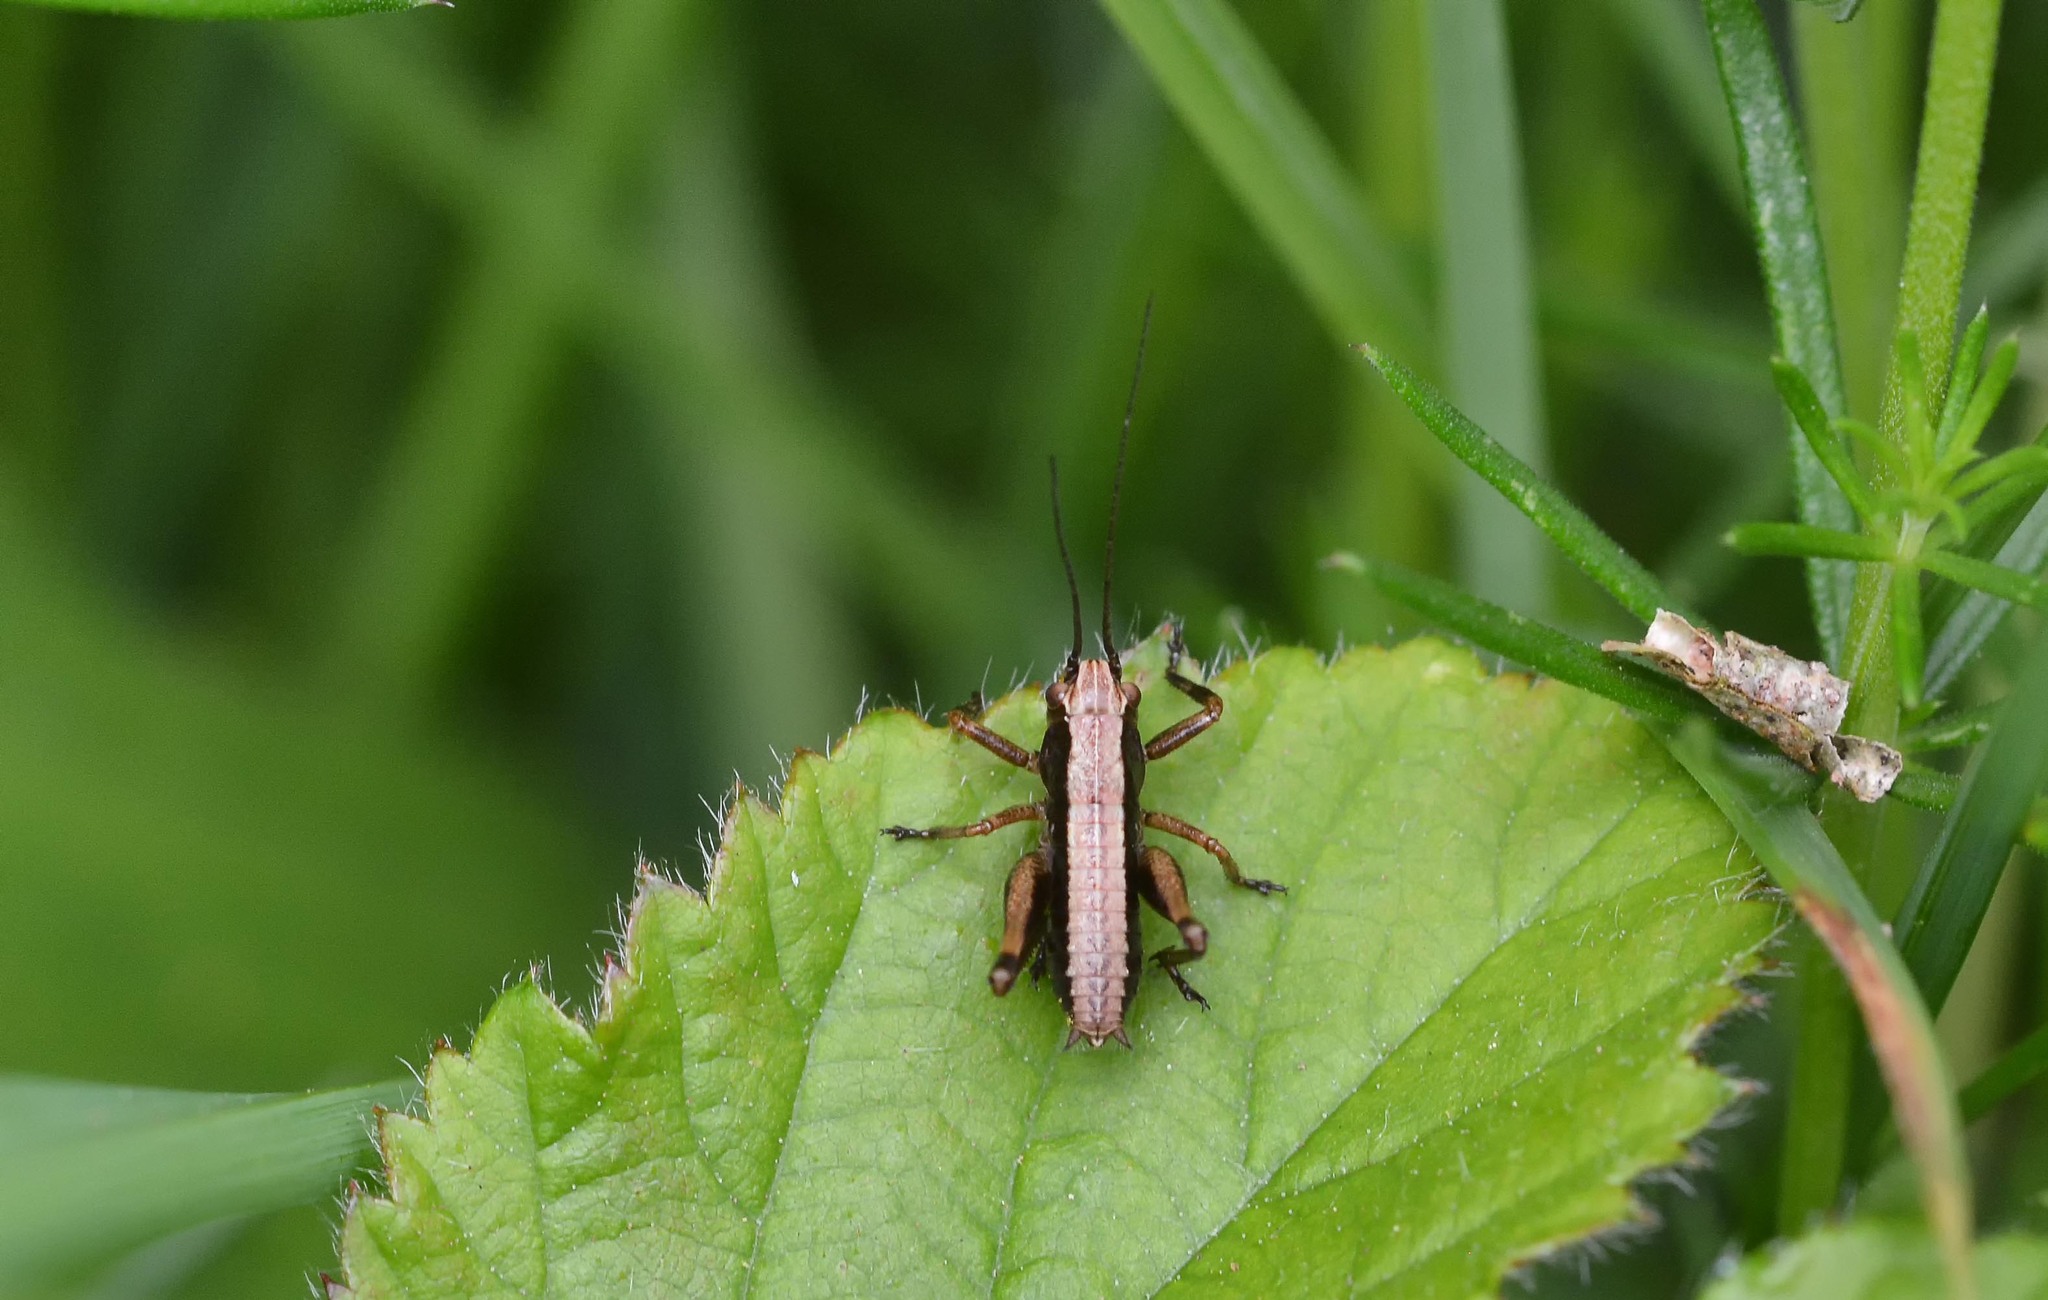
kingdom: Animalia
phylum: Arthropoda
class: Insecta
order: Orthoptera
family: Tettigoniidae
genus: Pholidoptera
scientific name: Pholidoptera griseoaptera
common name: Dark bush-cricket
